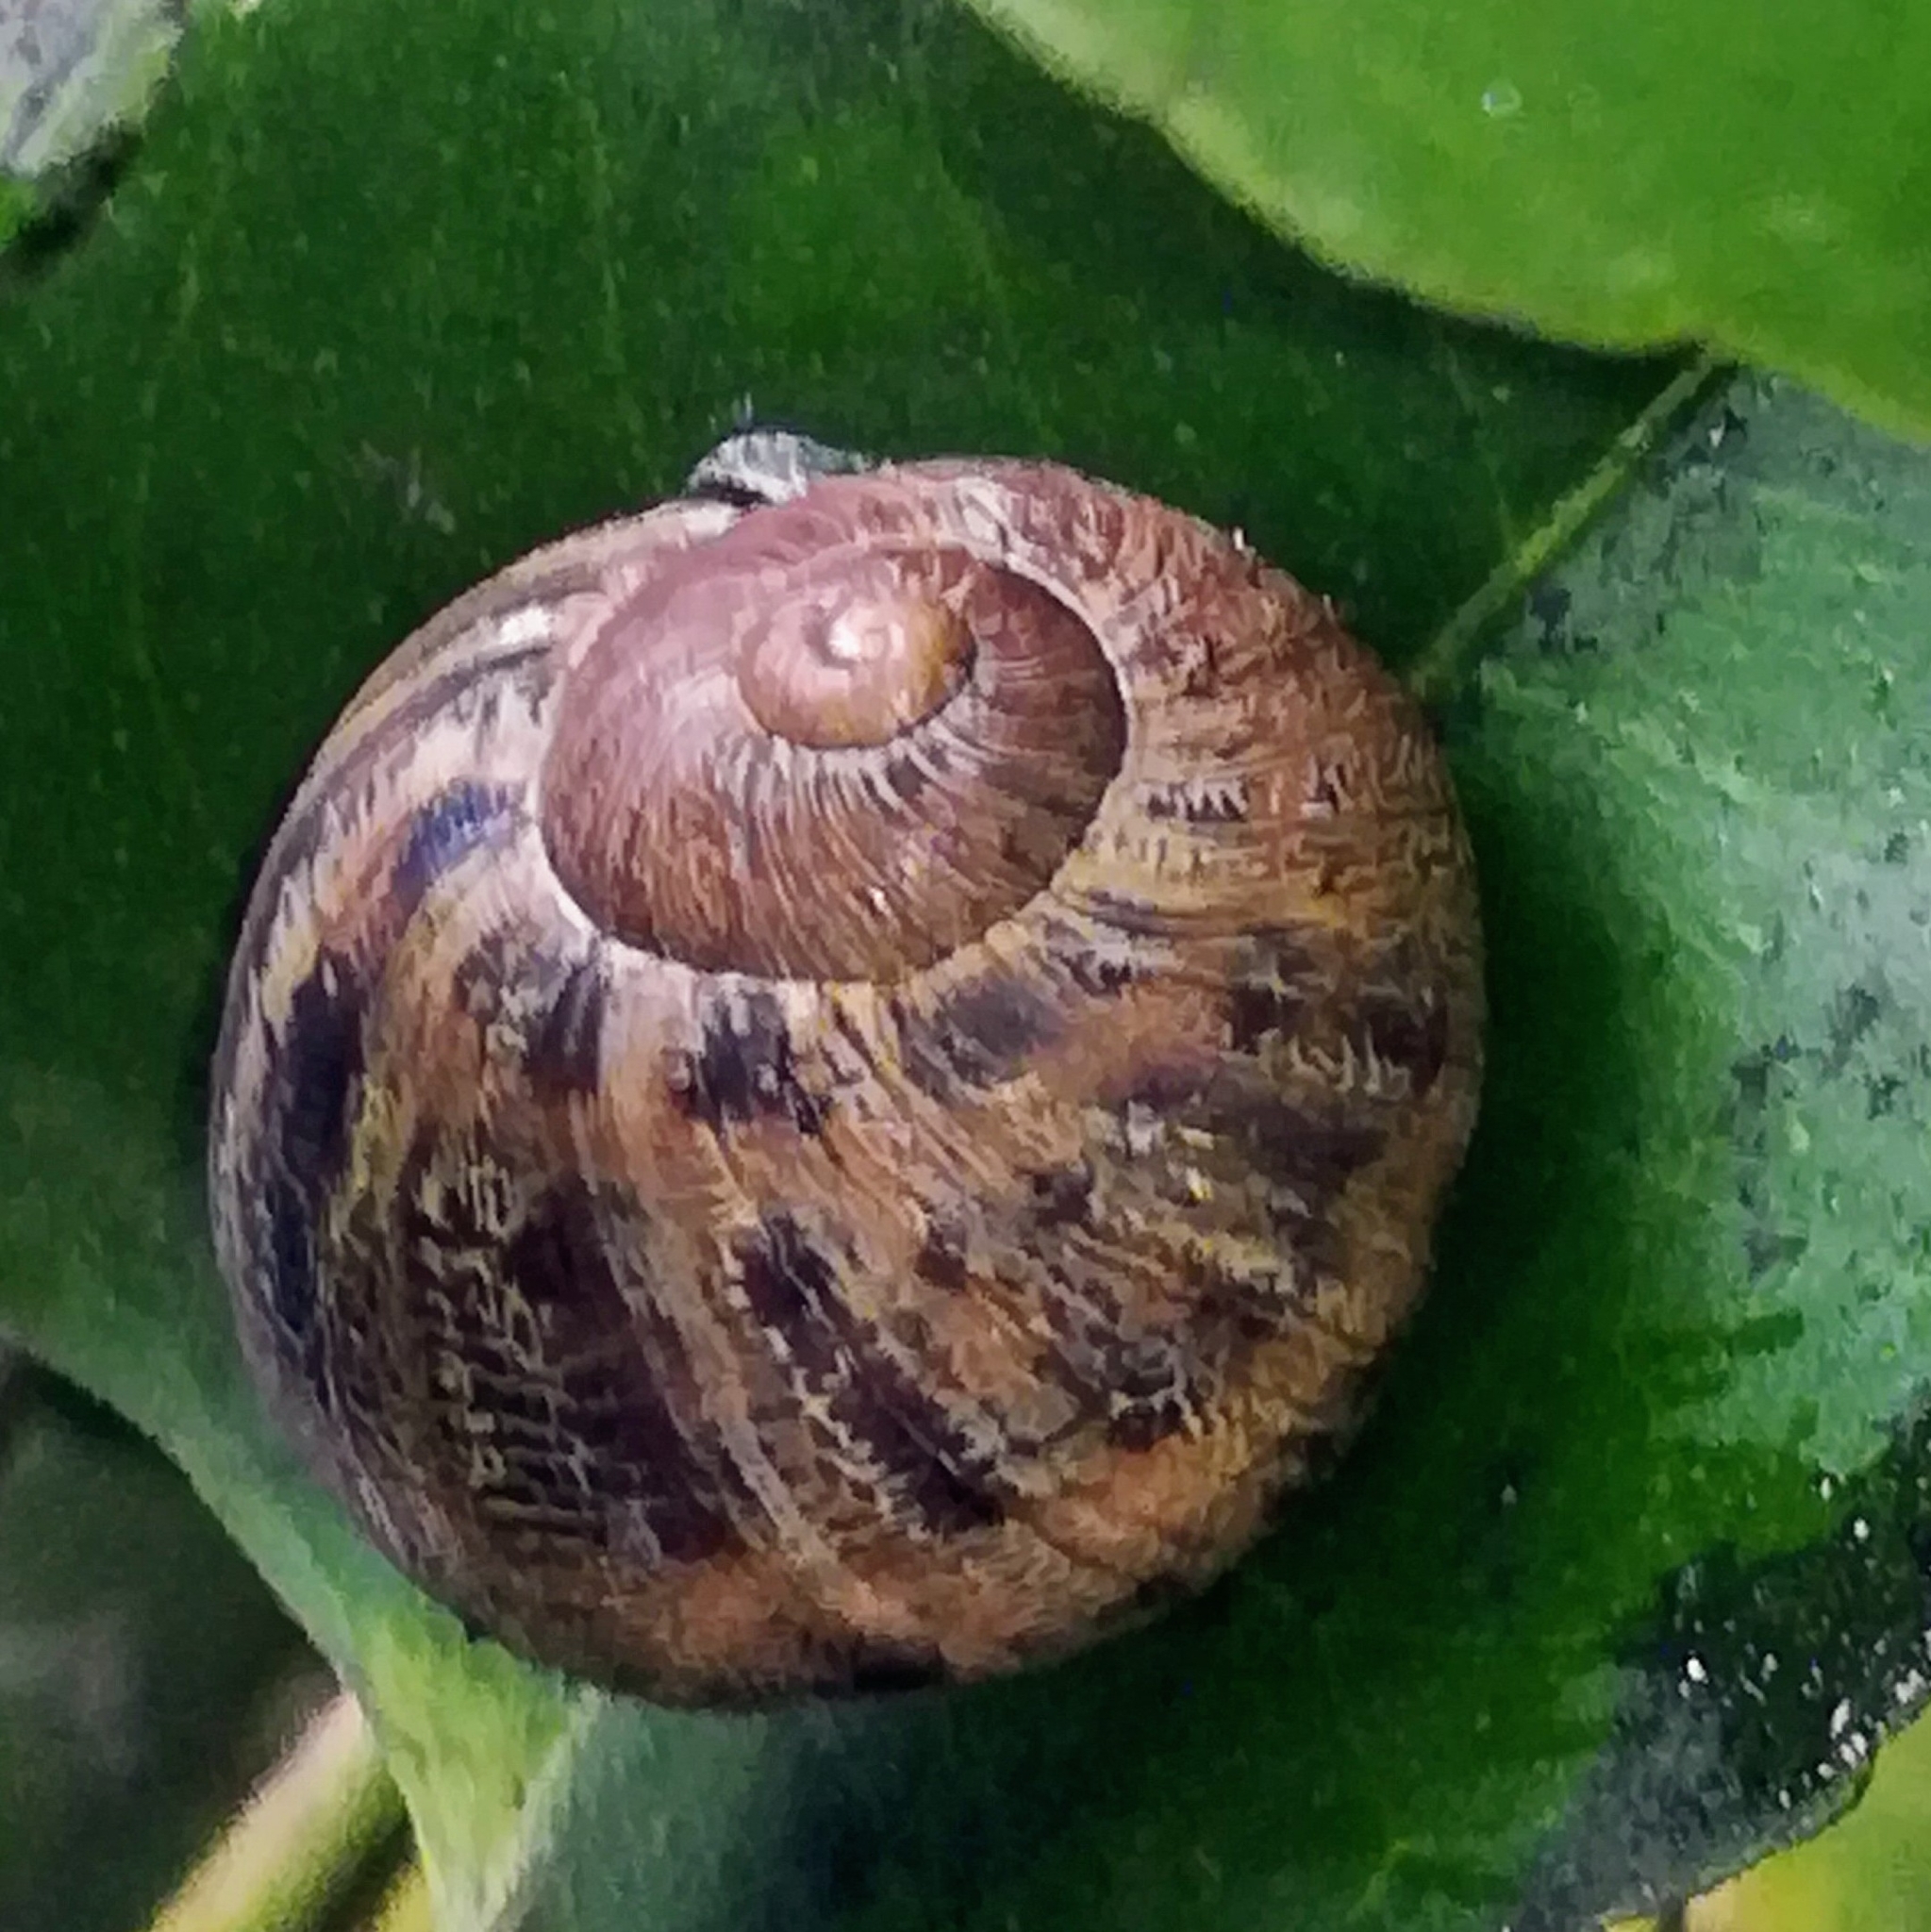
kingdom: Animalia
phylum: Mollusca
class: Gastropoda
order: Stylommatophora
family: Helicidae
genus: Cornu
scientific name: Cornu aspersum
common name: Brown garden snail
